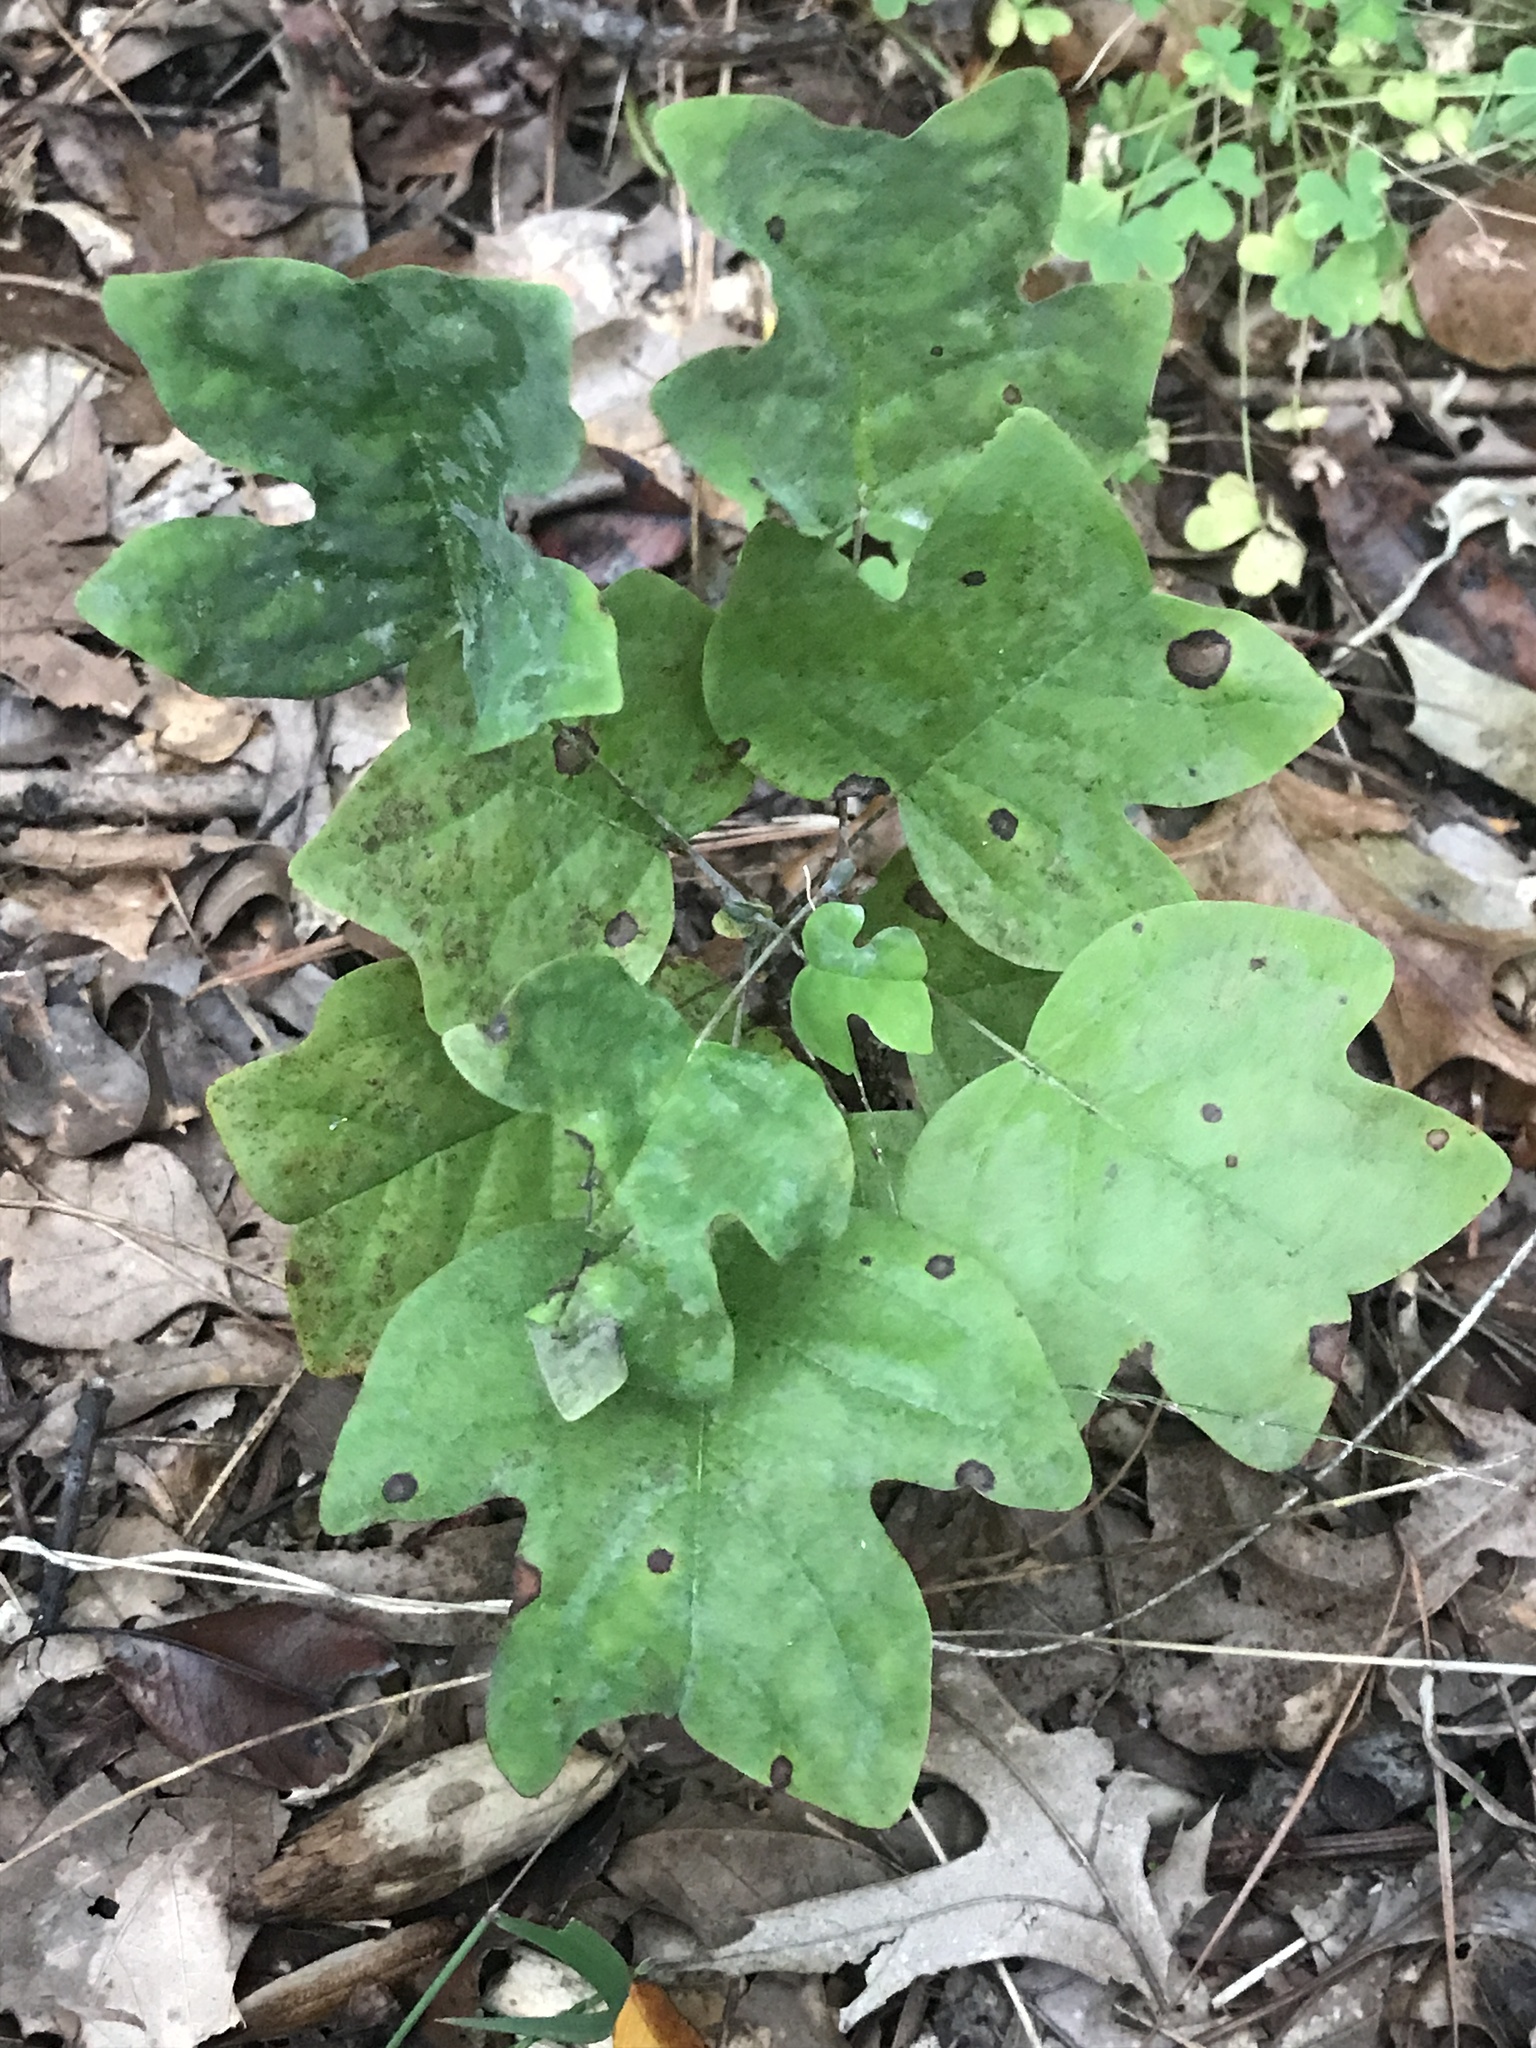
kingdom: Plantae
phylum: Tracheophyta
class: Magnoliopsida
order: Magnoliales
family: Magnoliaceae
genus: Liriodendron
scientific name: Liriodendron tulipifera
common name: Tulip tree
